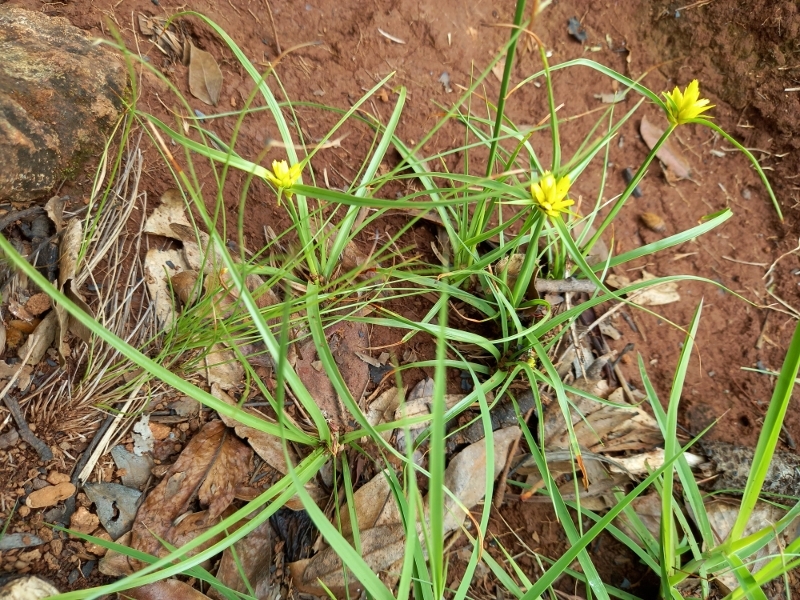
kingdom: Plantae
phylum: Tracheophyta
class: Liliopsida
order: Poales
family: Cyperaceae
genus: Cyperus
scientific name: Cyperus sphaerocephalus
